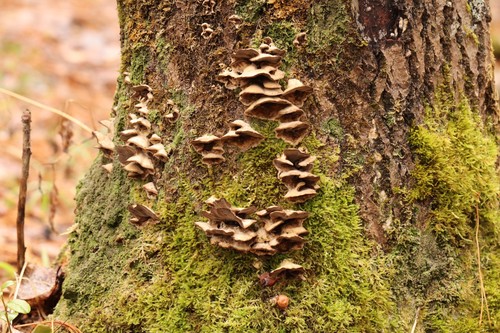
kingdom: Fungi
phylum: Basidiomycota
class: Agaricomycetes
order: Polyporales
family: Phanerochaetaceae
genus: Bjerkandera
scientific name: Bjerkandera adusta
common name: Smoky bracket
